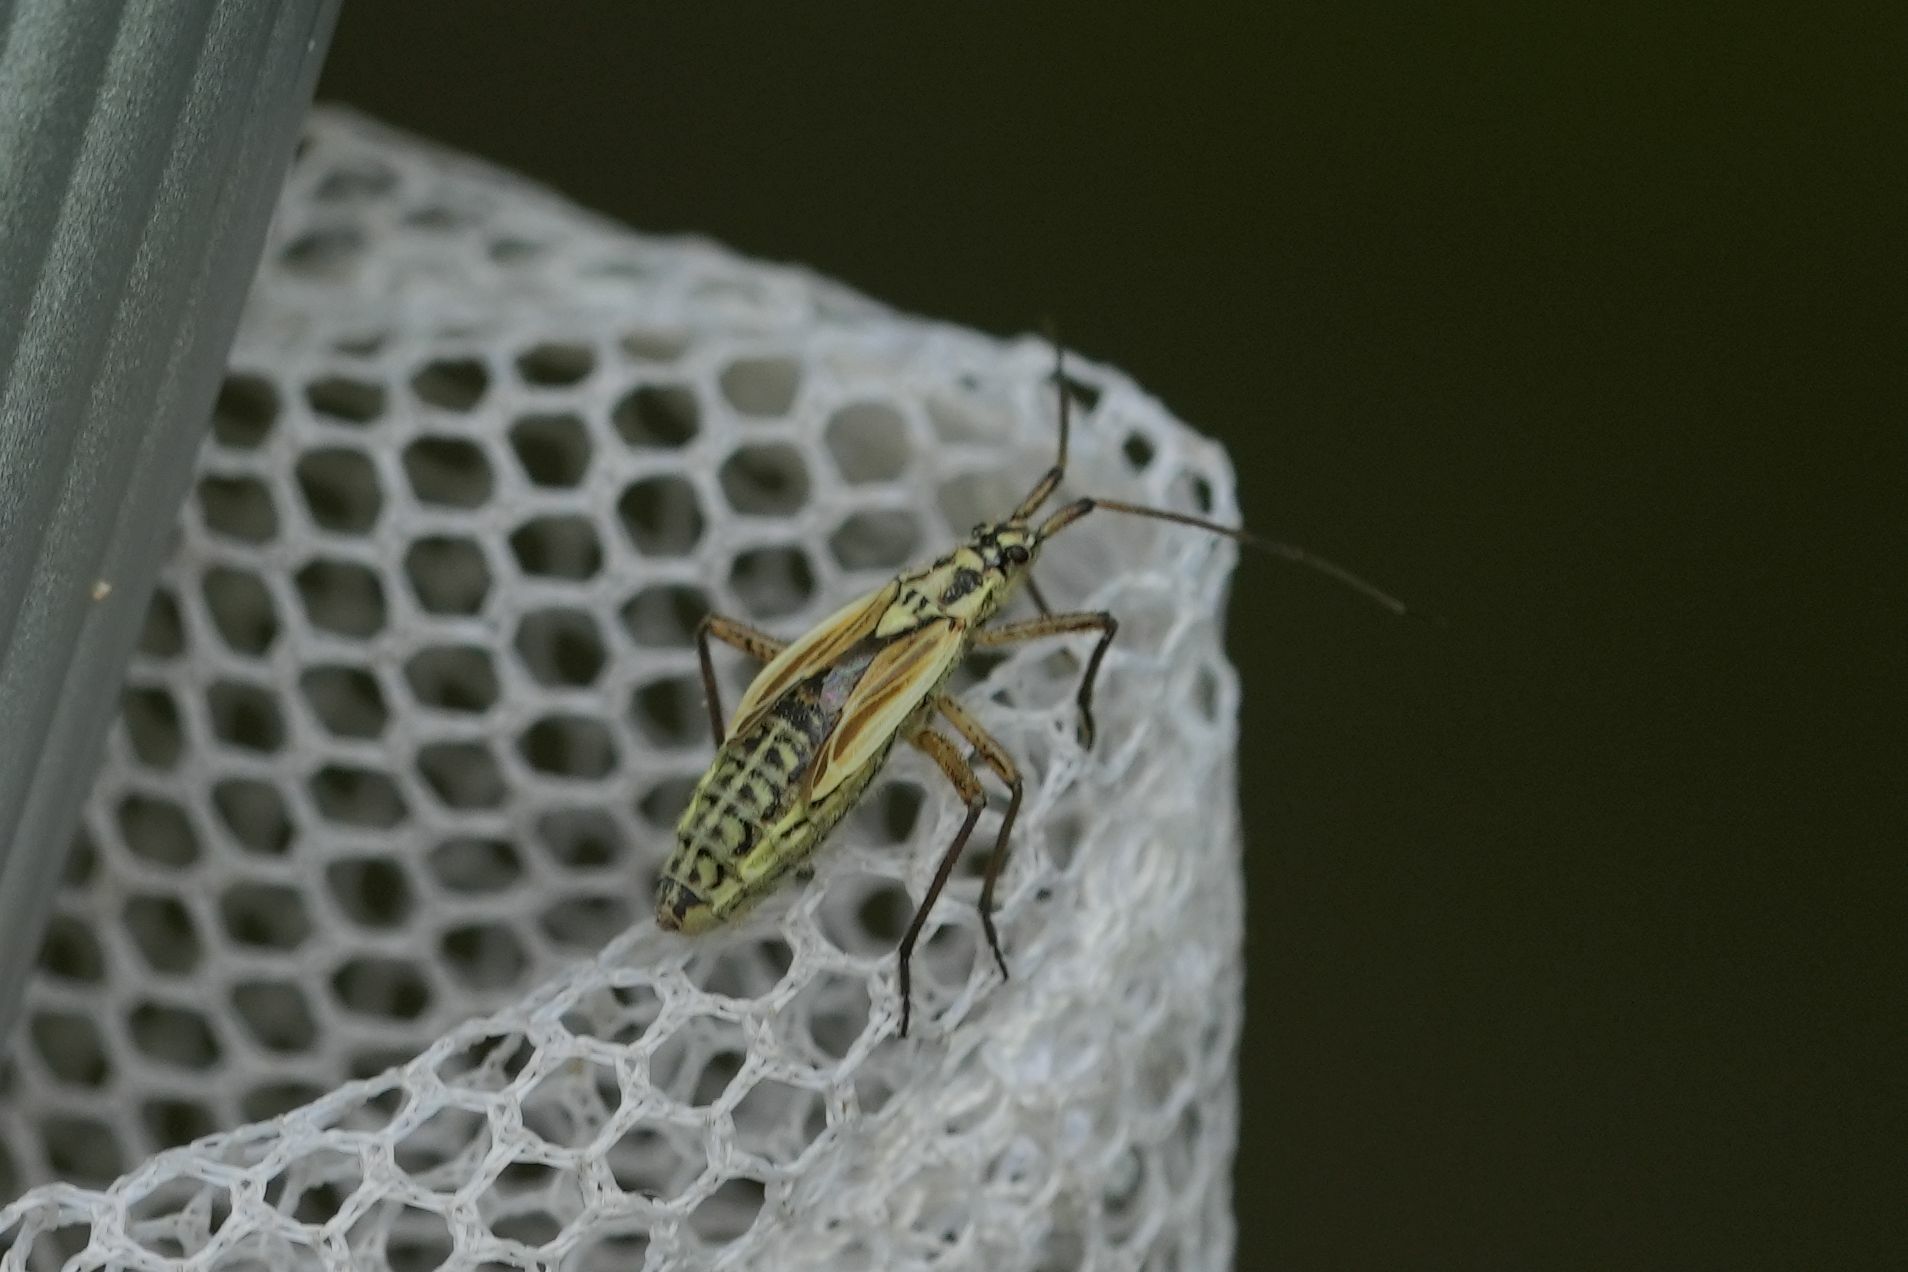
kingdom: Animalia
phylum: Arthropoda
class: Insecta
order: Hemiptera
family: Miridae
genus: Leptopterna
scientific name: Leptopterna dolabrata
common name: Meadow plant bug
